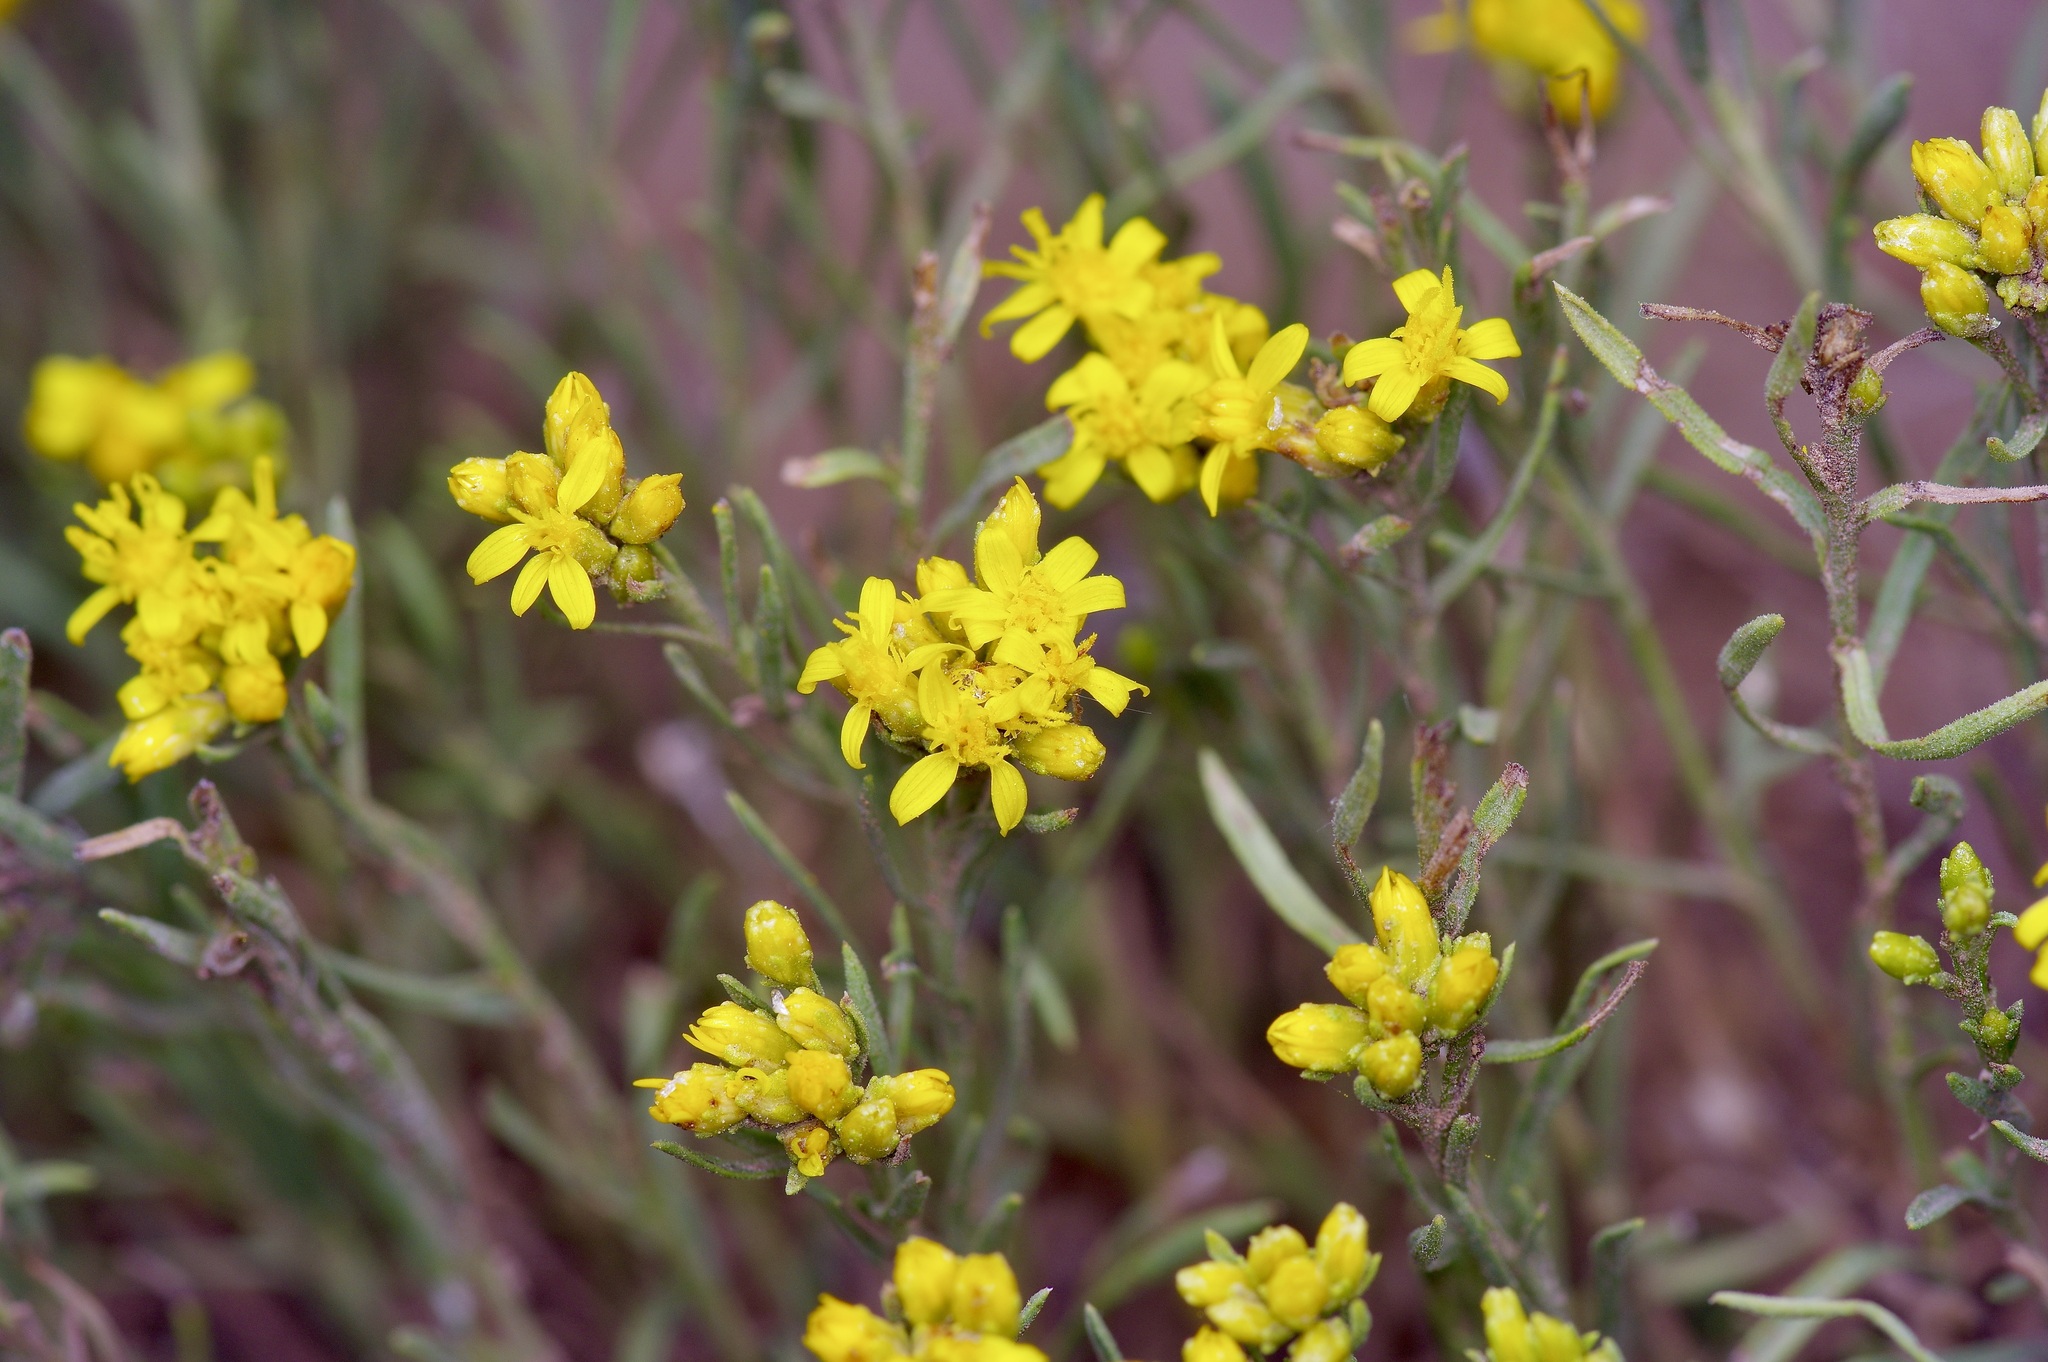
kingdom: Plantae
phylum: Tracheophyta
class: Magnoliopsida
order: Asterales
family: Asteraceae
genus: Gutierrezia
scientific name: Gutierrezia sarothrae
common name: Broom snakeweed
